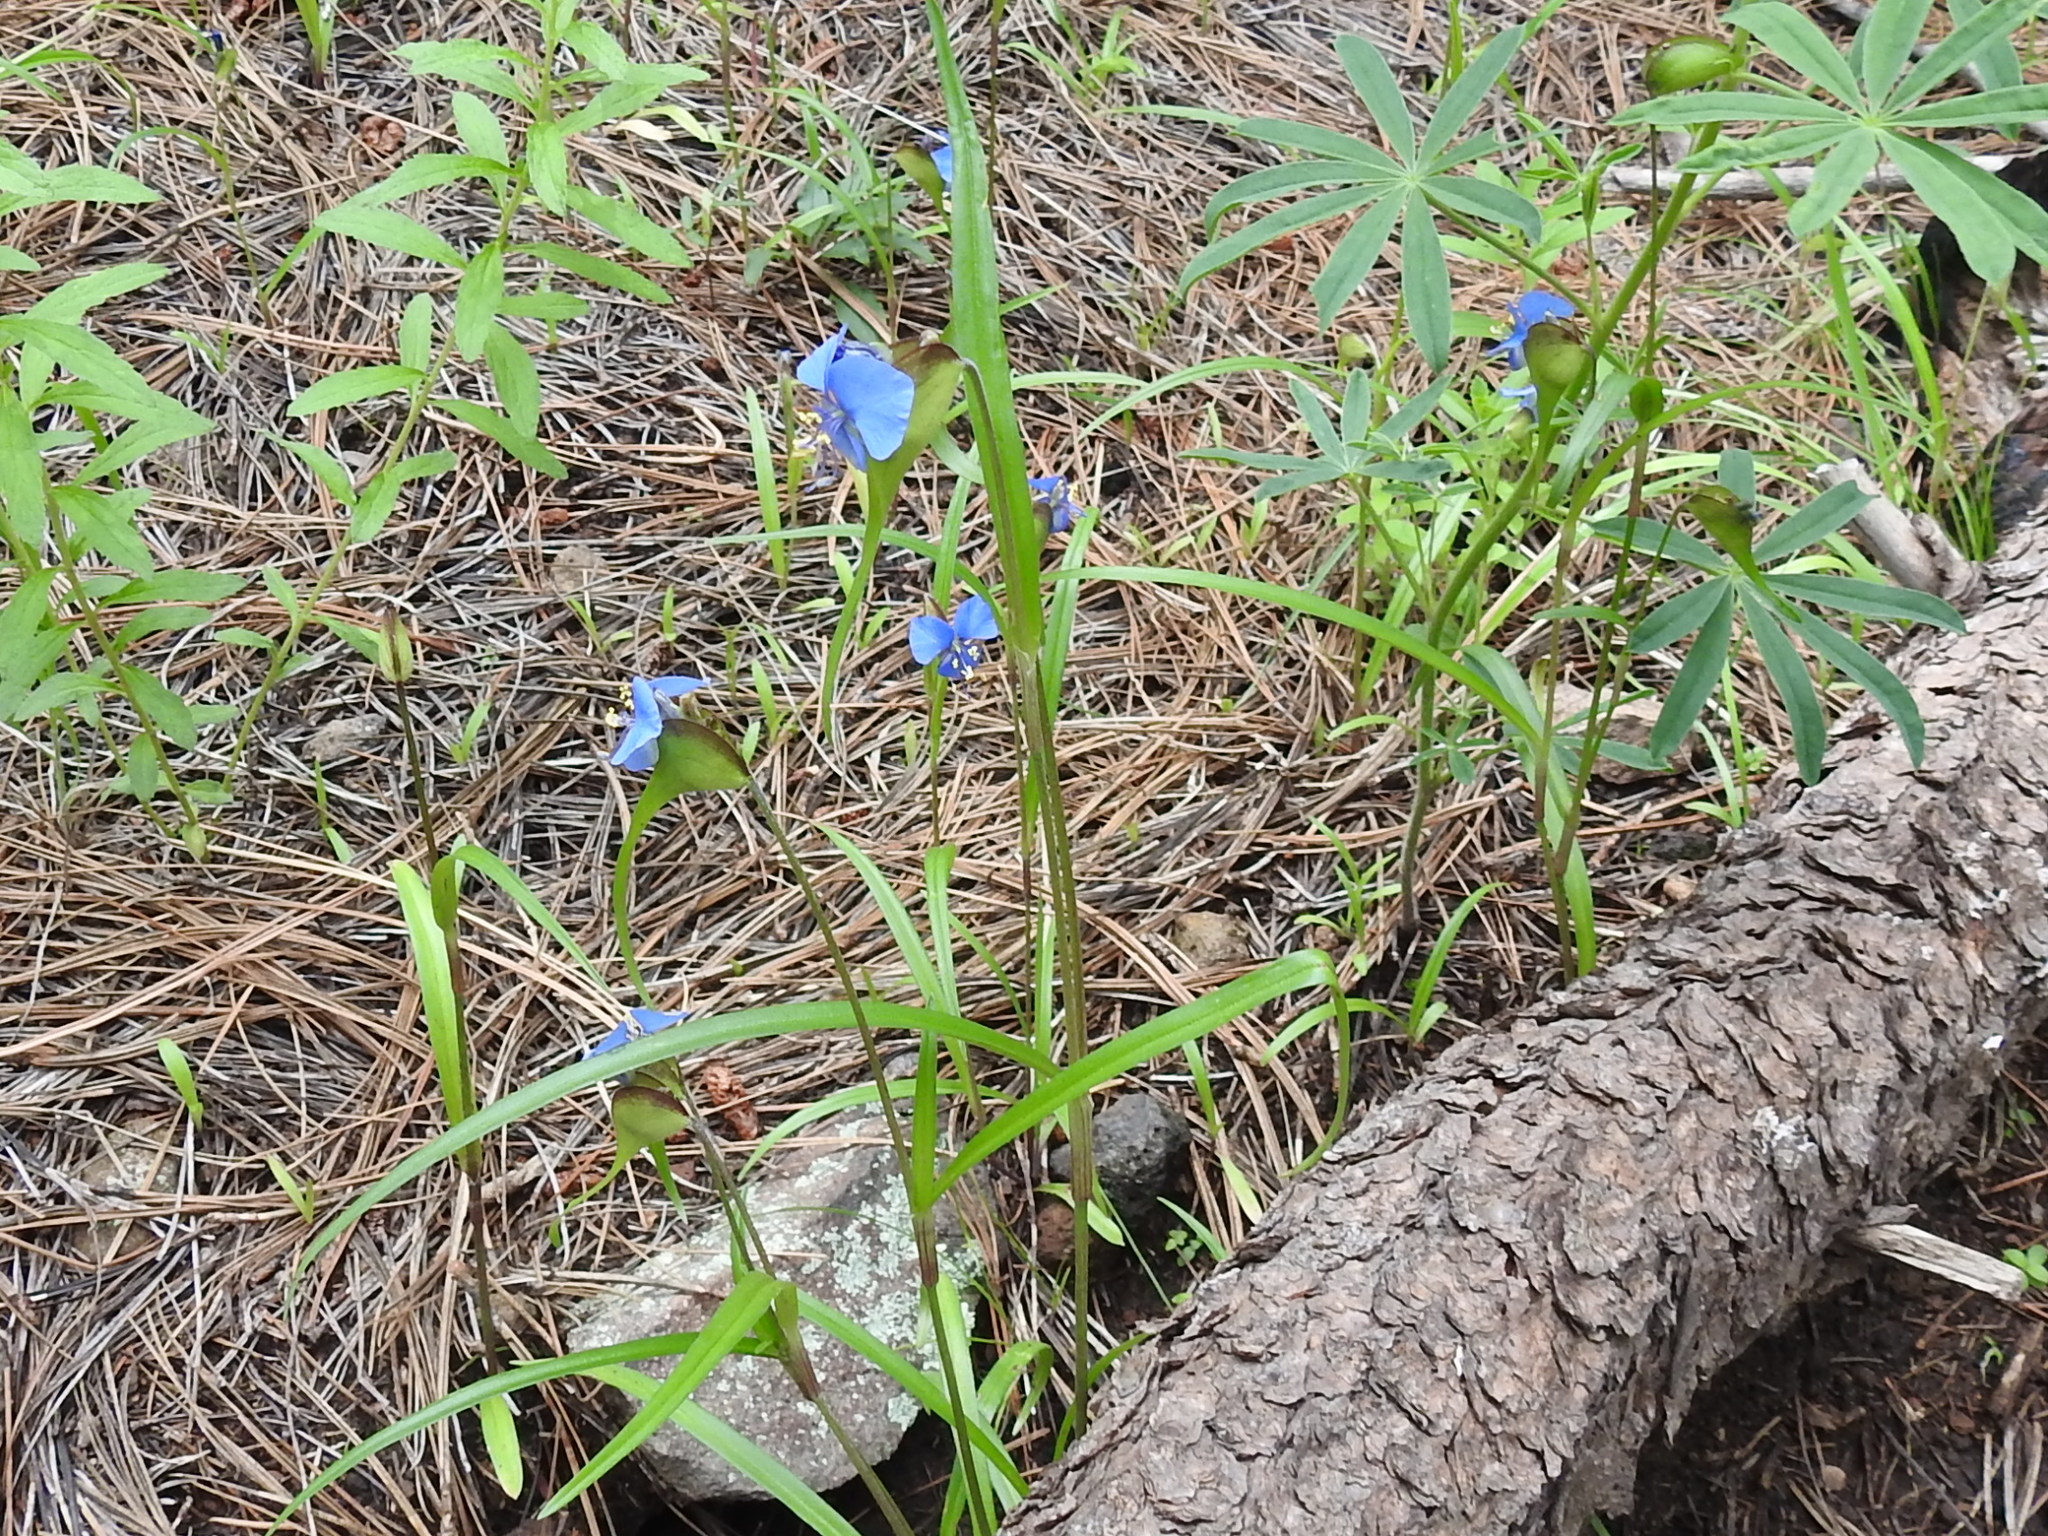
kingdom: Plantae
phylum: Tracheophyta
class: Liliopsida
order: Commelinales
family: Commelinaceae
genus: Commelina
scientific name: Commelina dianthifolia
